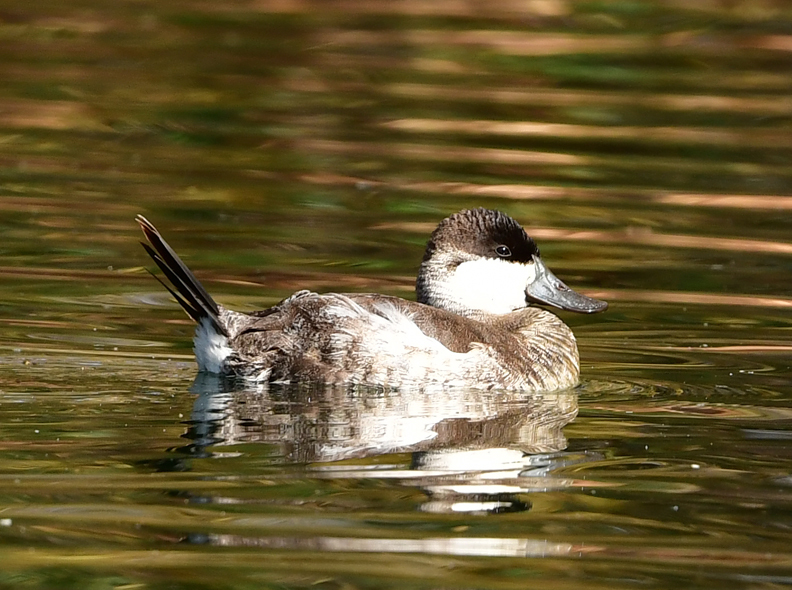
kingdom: Animalia
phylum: Chordata
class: Aves
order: Anseriformes
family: Anatidae
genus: Oxyura
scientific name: Oxyura jamaicensis
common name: Ruddy duck
